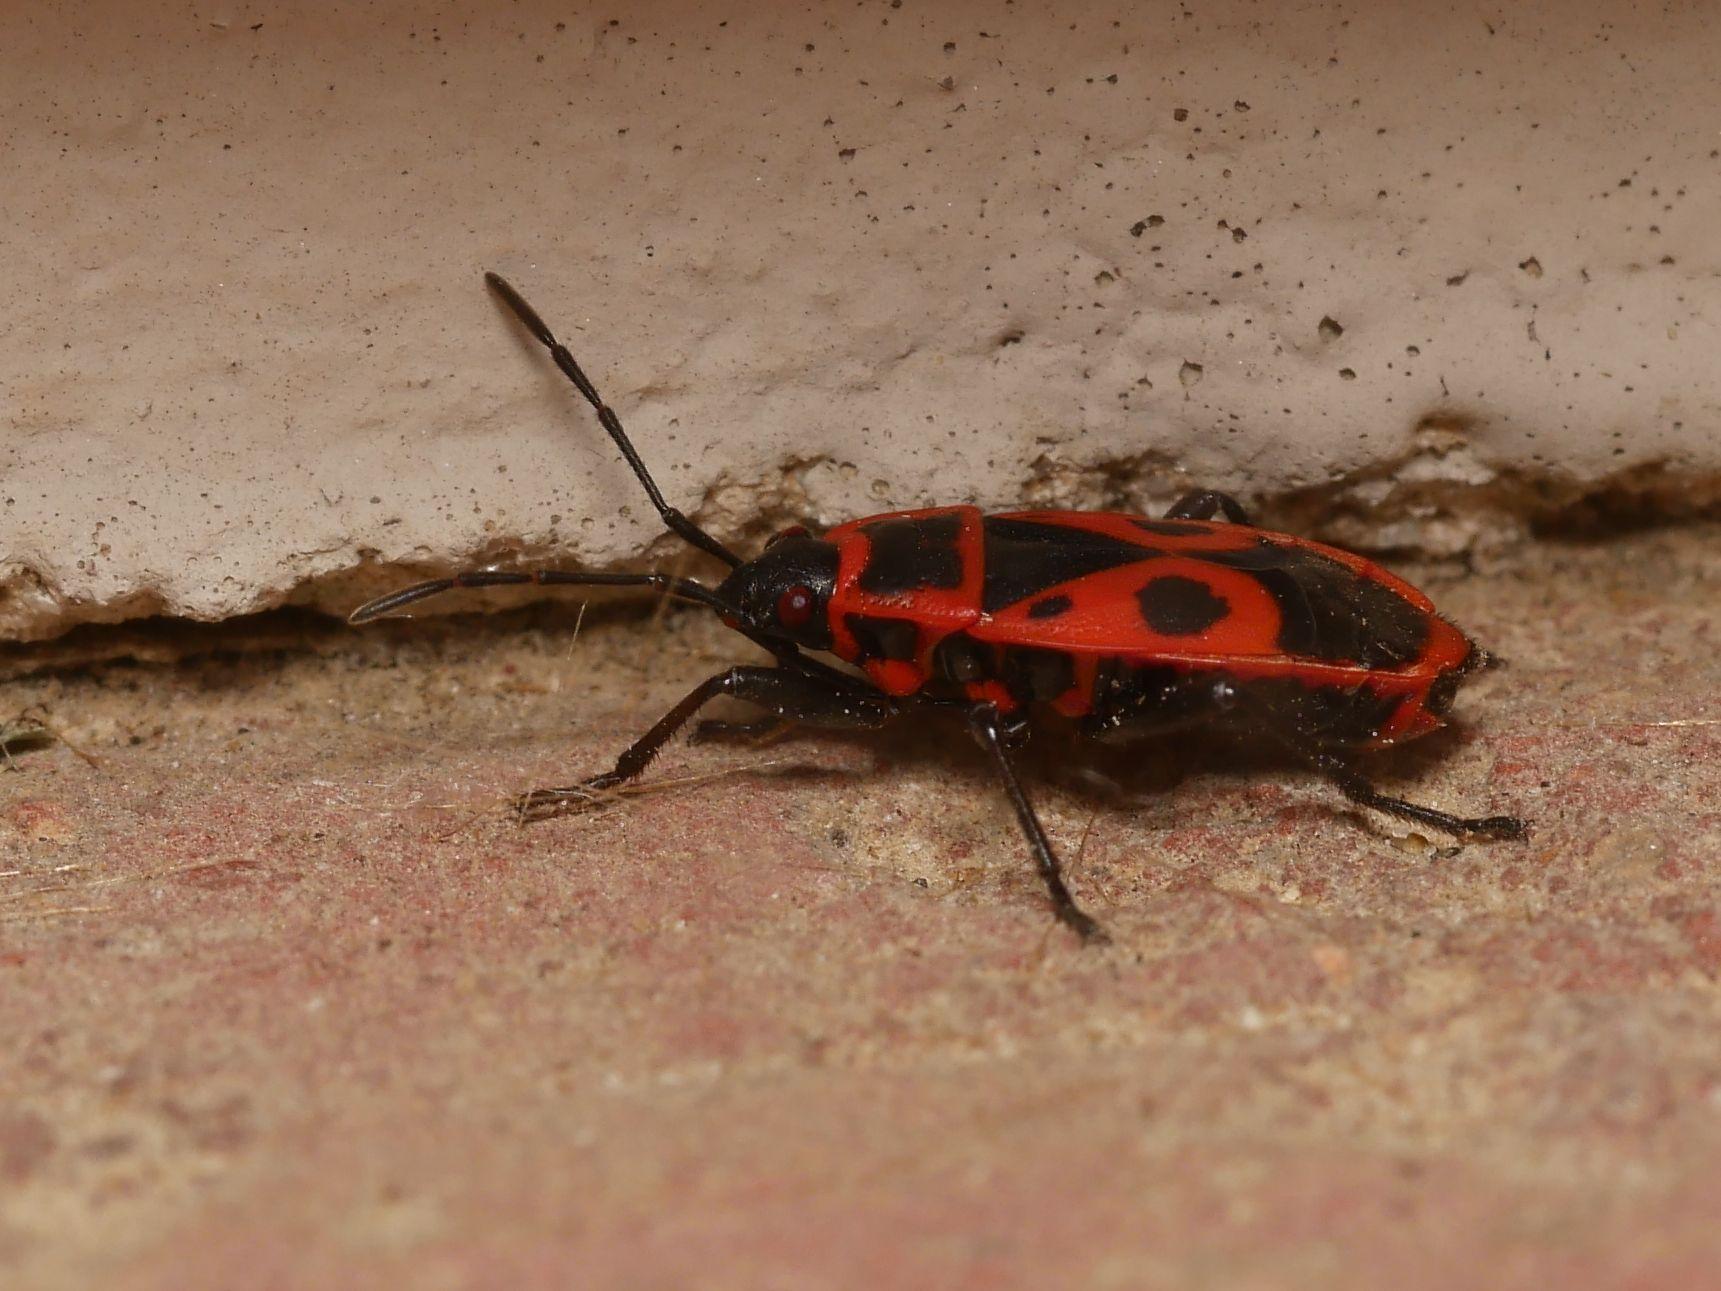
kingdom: Animalia
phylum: Arthropoda
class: Insecta
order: Hemiptera
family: Pyrrhocoridae
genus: Pyrrhocoris
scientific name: Pyrrhocoris apterus
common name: Firebug
